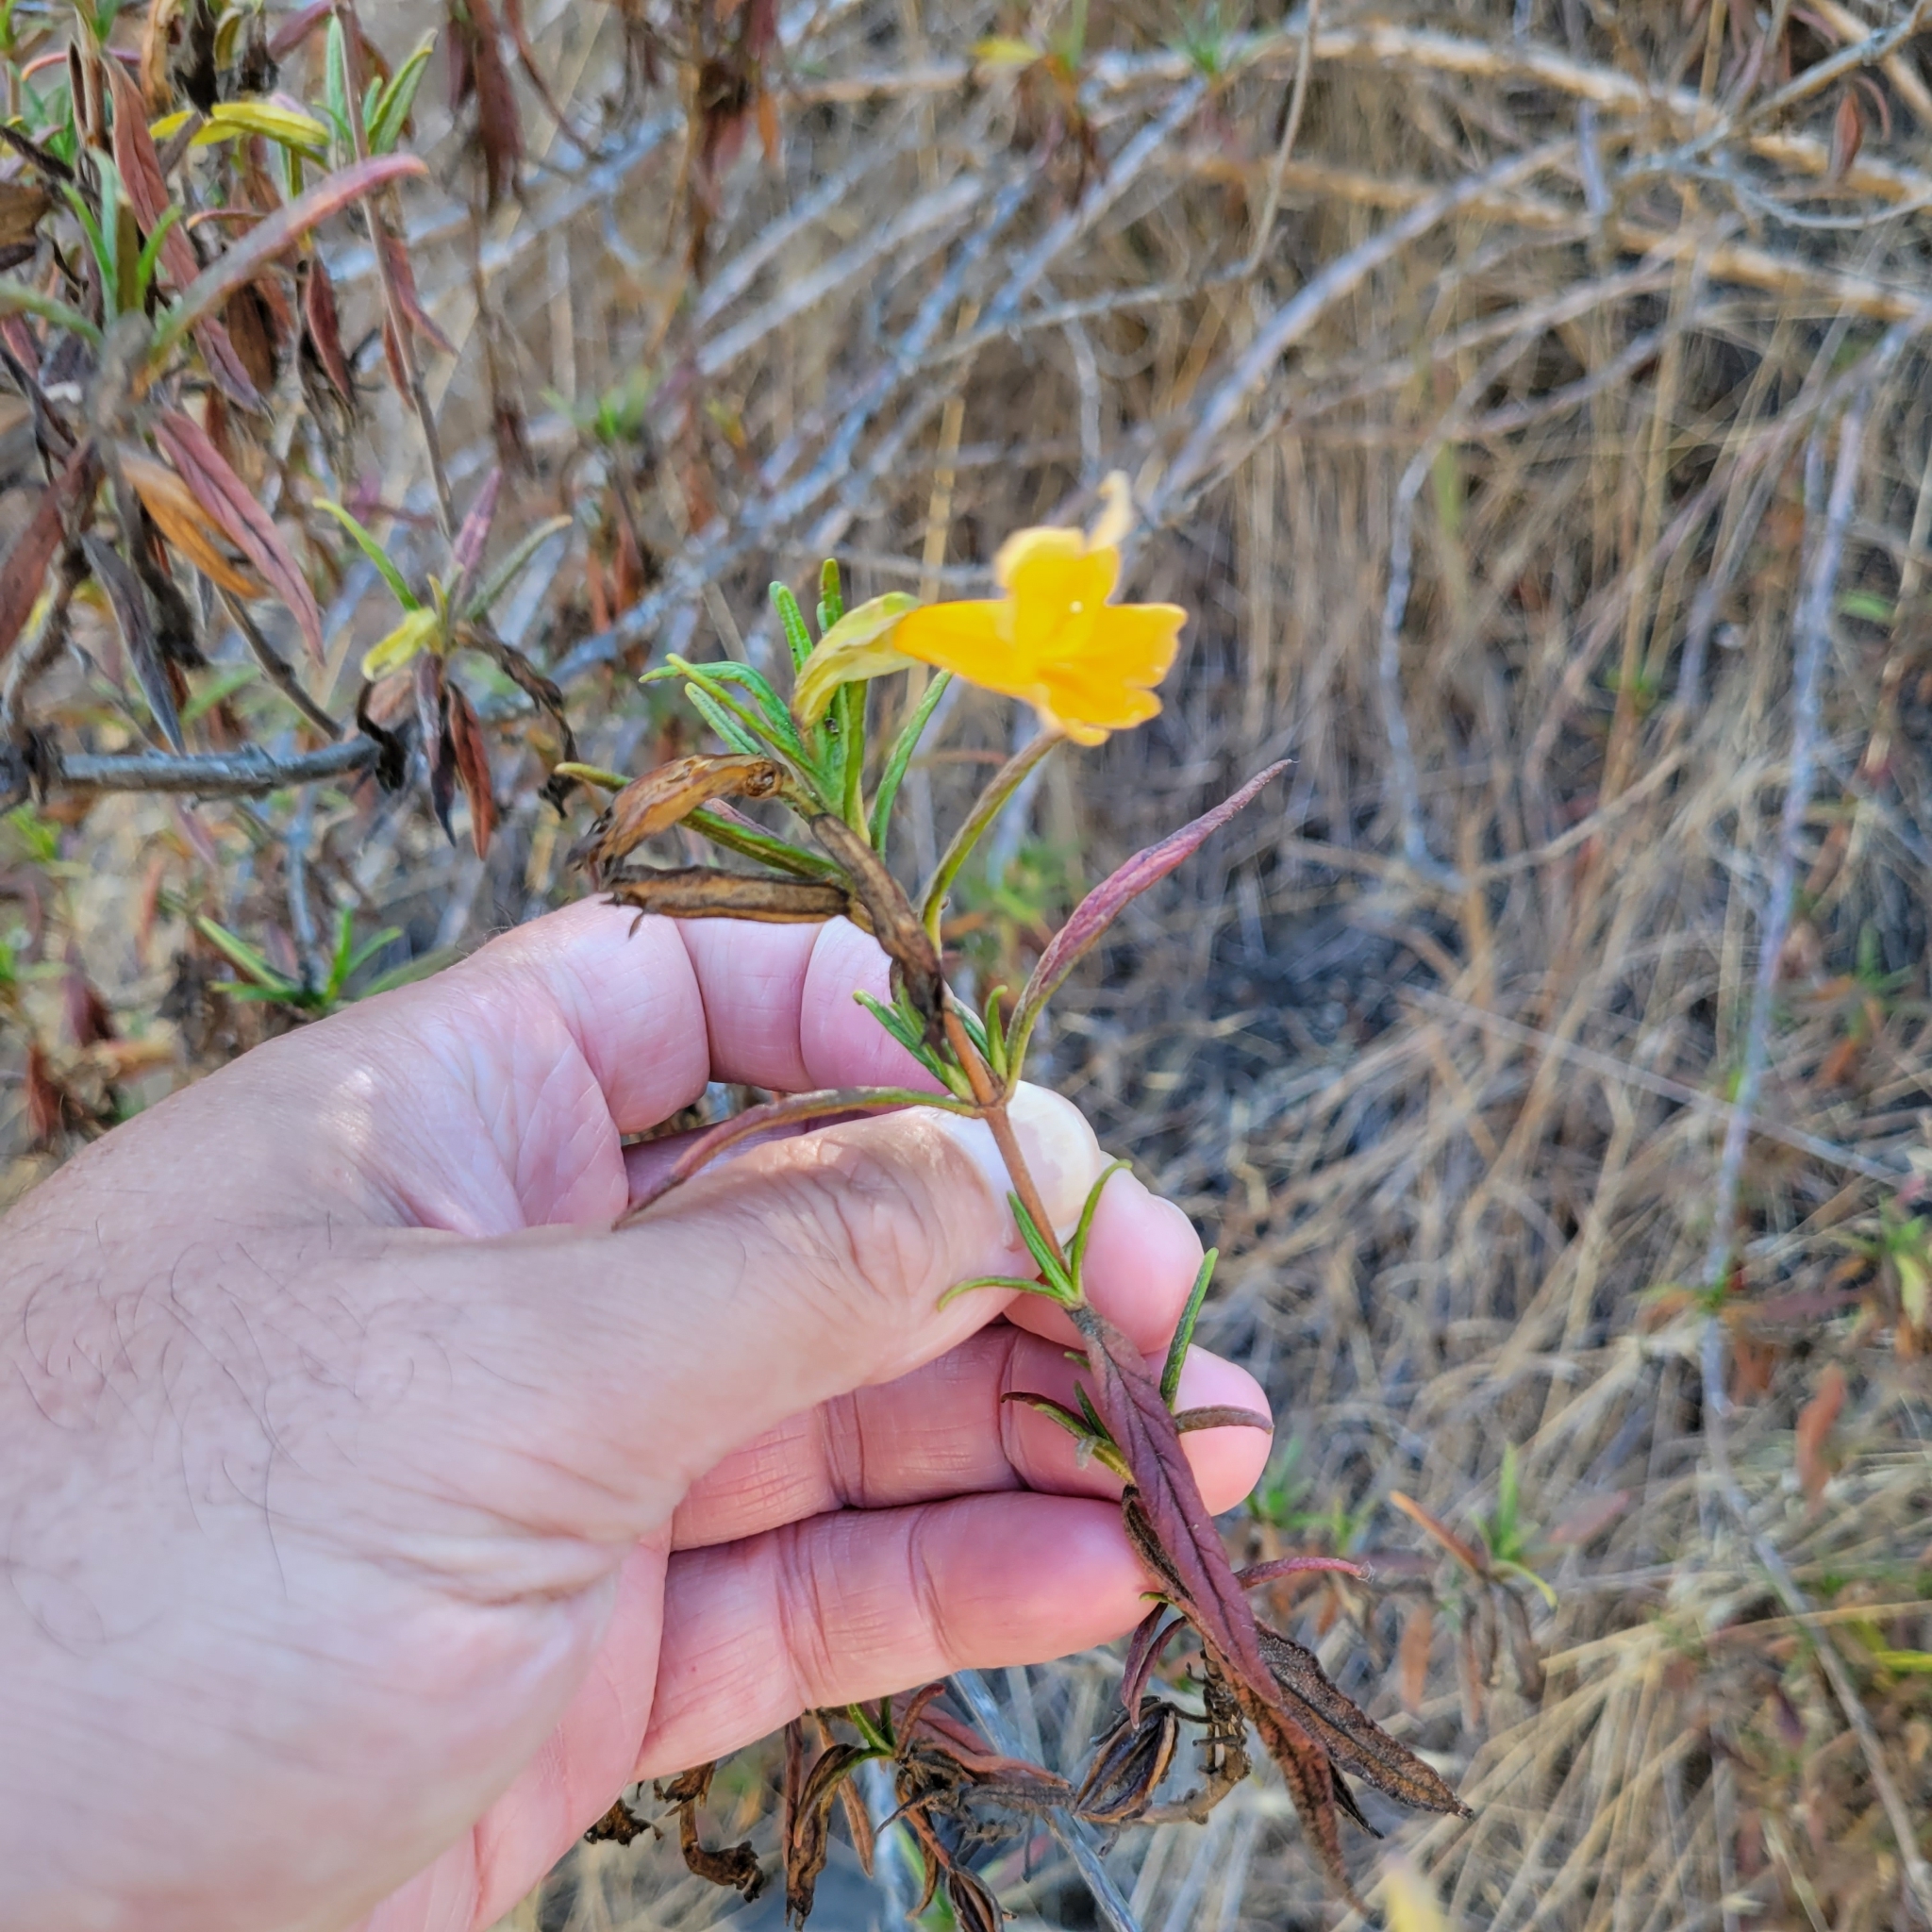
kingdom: Plantae
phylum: Tracheophyta
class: Magnoliopsida
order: Lamiales
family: Phrymaceae
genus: Diplacus
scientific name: Diplacus aurantiacus
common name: Bush monkey-flower
